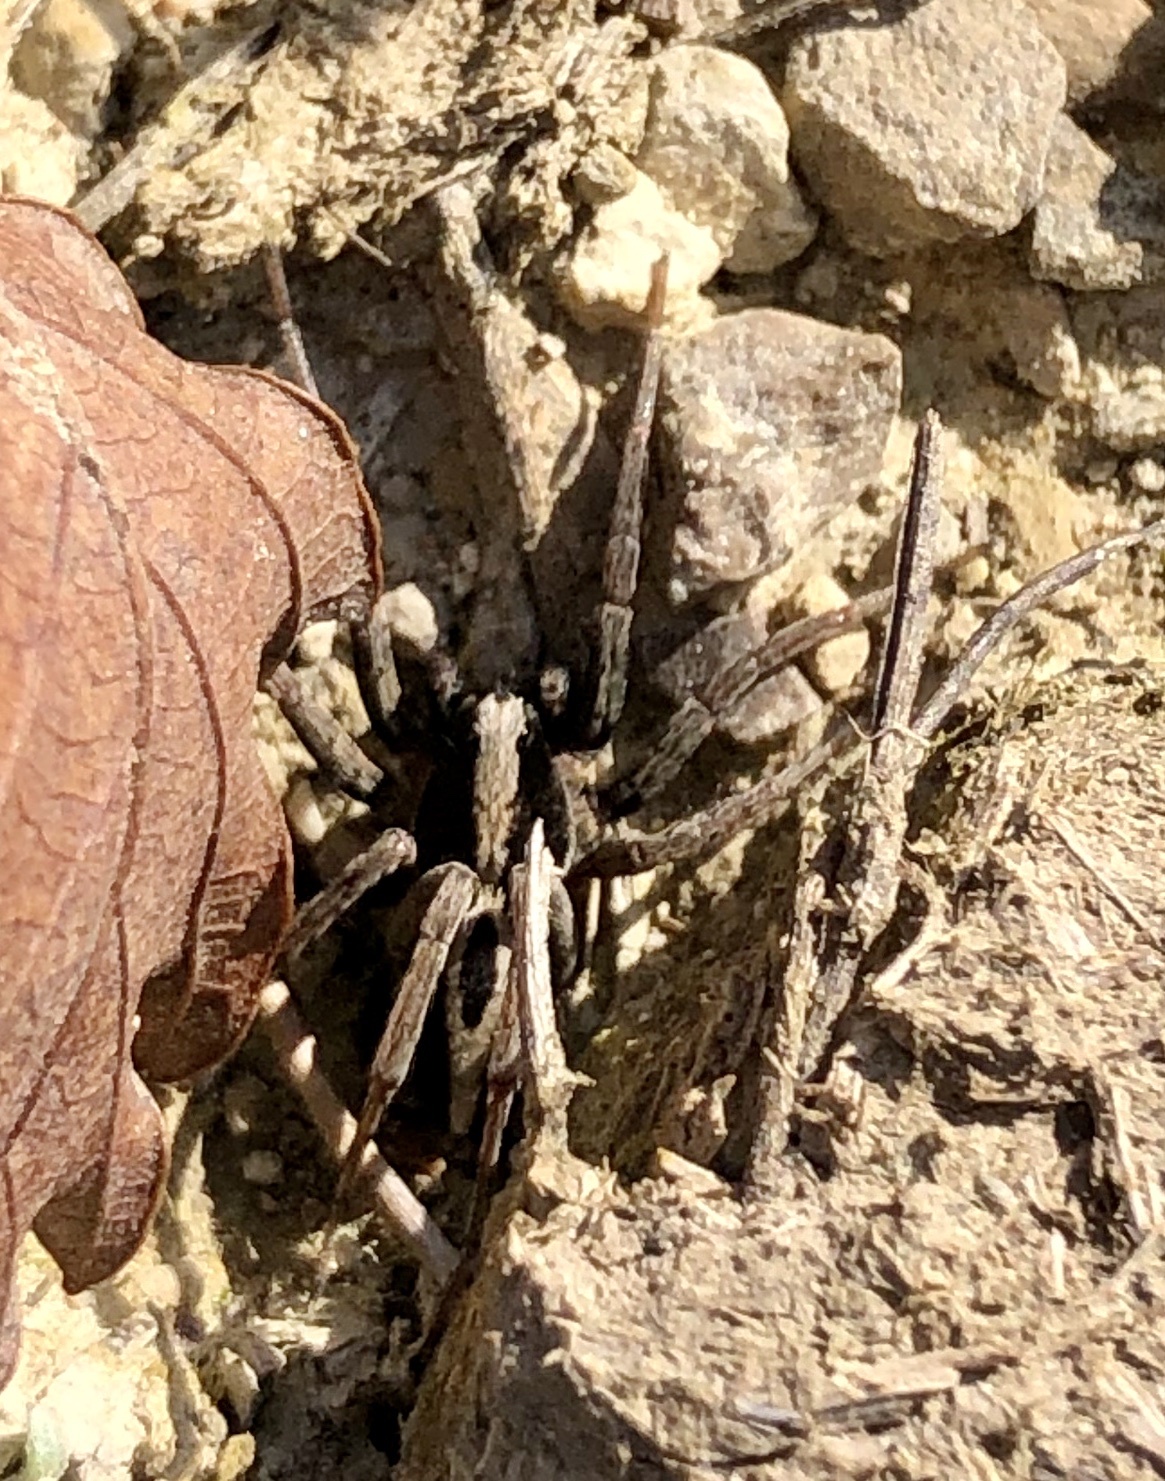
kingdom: Animalia
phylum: Arthropoda
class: Arachnida
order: Araneae
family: Lycosidae
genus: Alopecosa
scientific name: Alopecosa albofasciata
